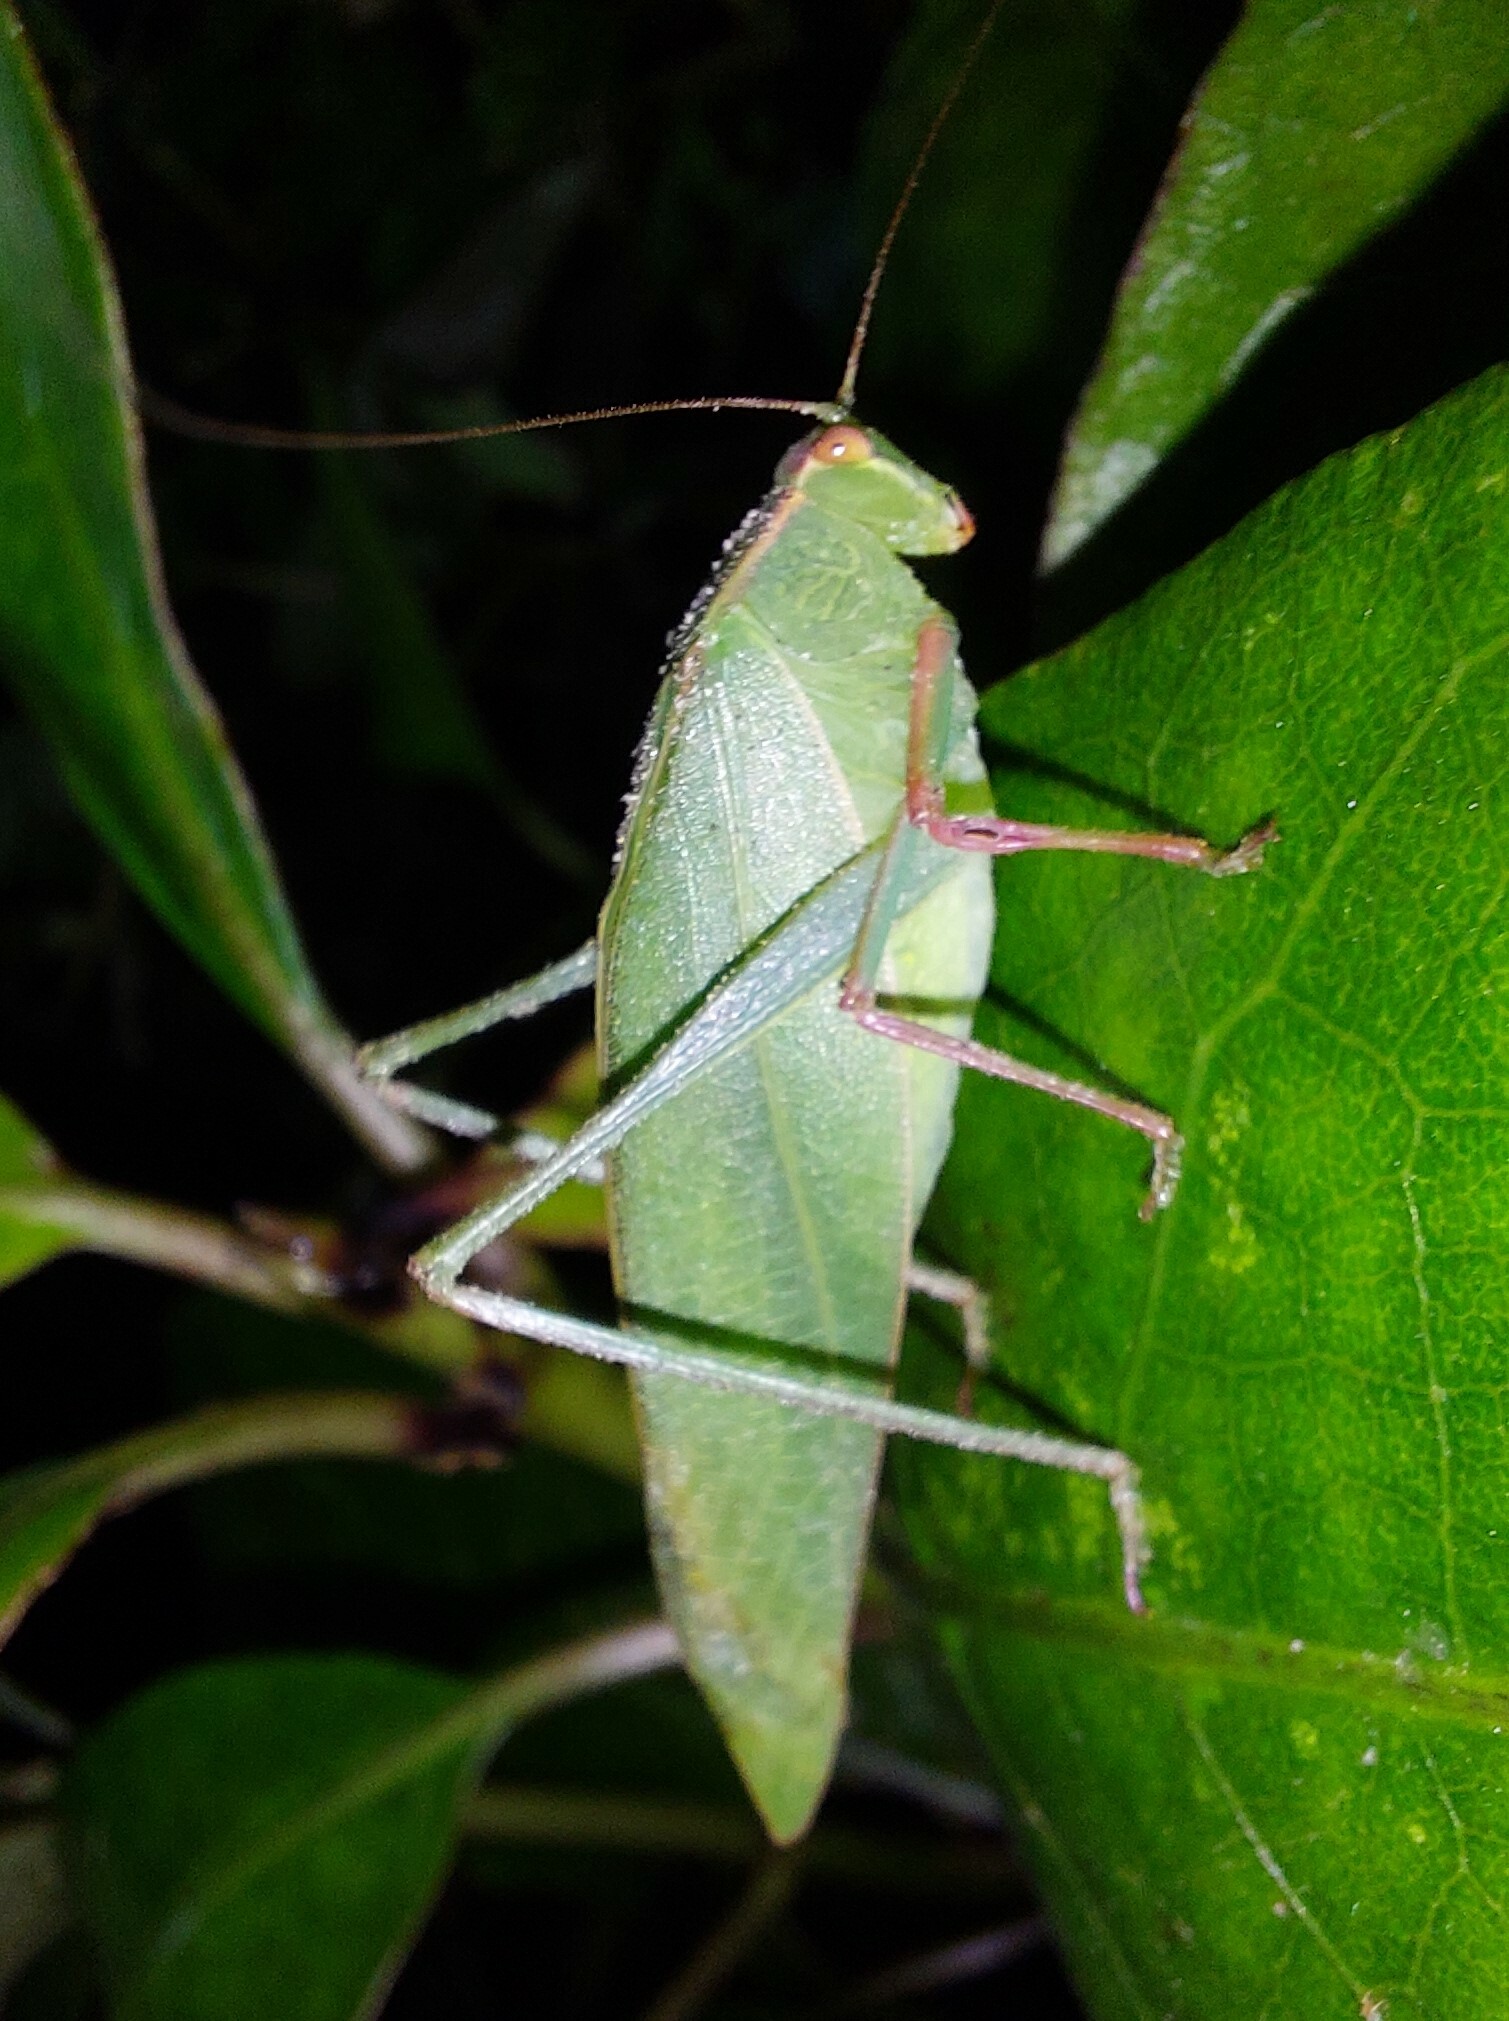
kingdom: Animalia
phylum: Arthropoda
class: Insecta
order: Orthoptera
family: Tettigoniidae
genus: Caedicia
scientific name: Caedicia simplex
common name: Common garden katydid
